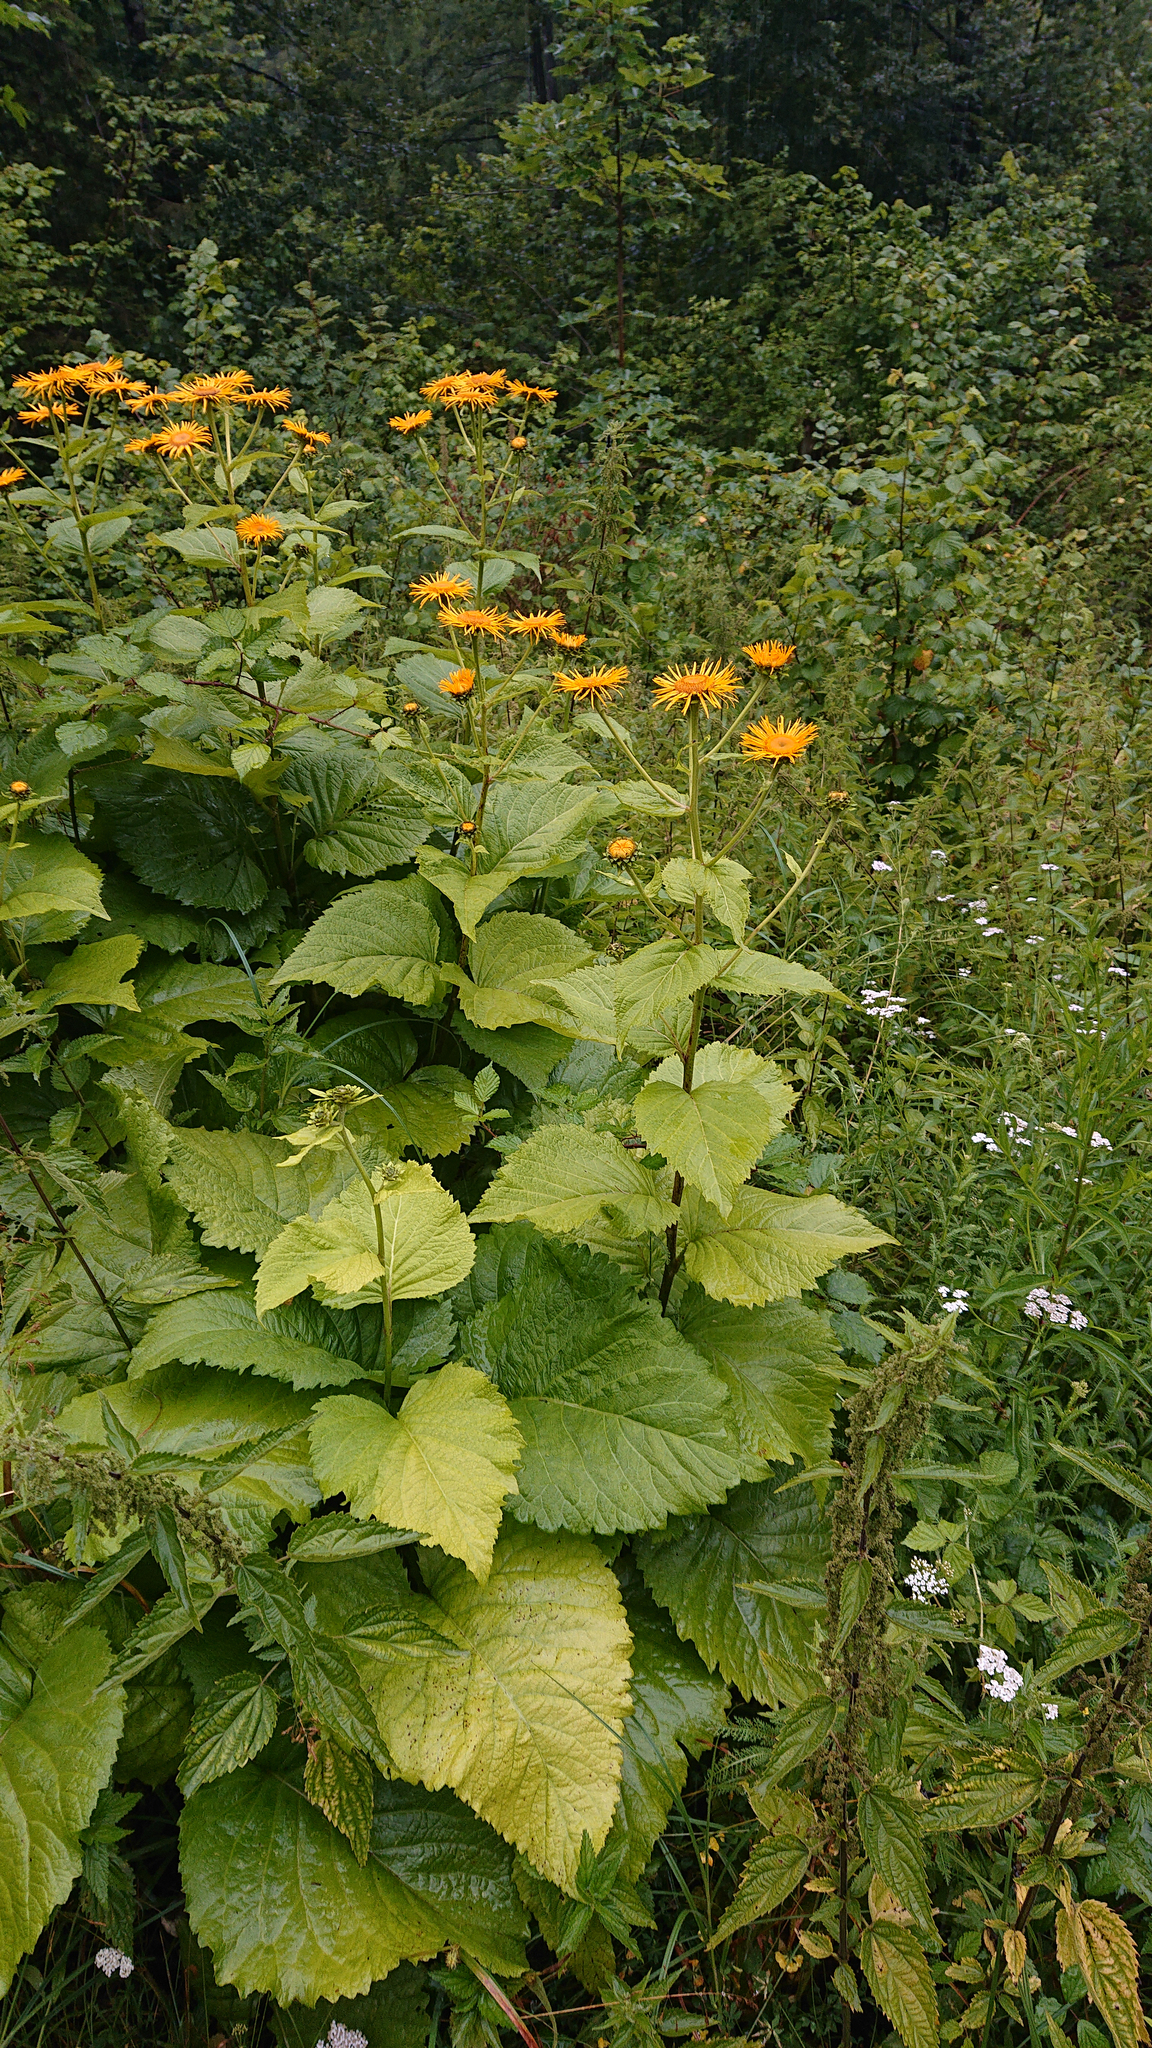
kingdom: Plantae
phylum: Tracheophyta
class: Magnoliopsida
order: Asterales
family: Asteraceae
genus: Telekia
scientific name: Telekia speciosa
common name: Yellow oxeye
